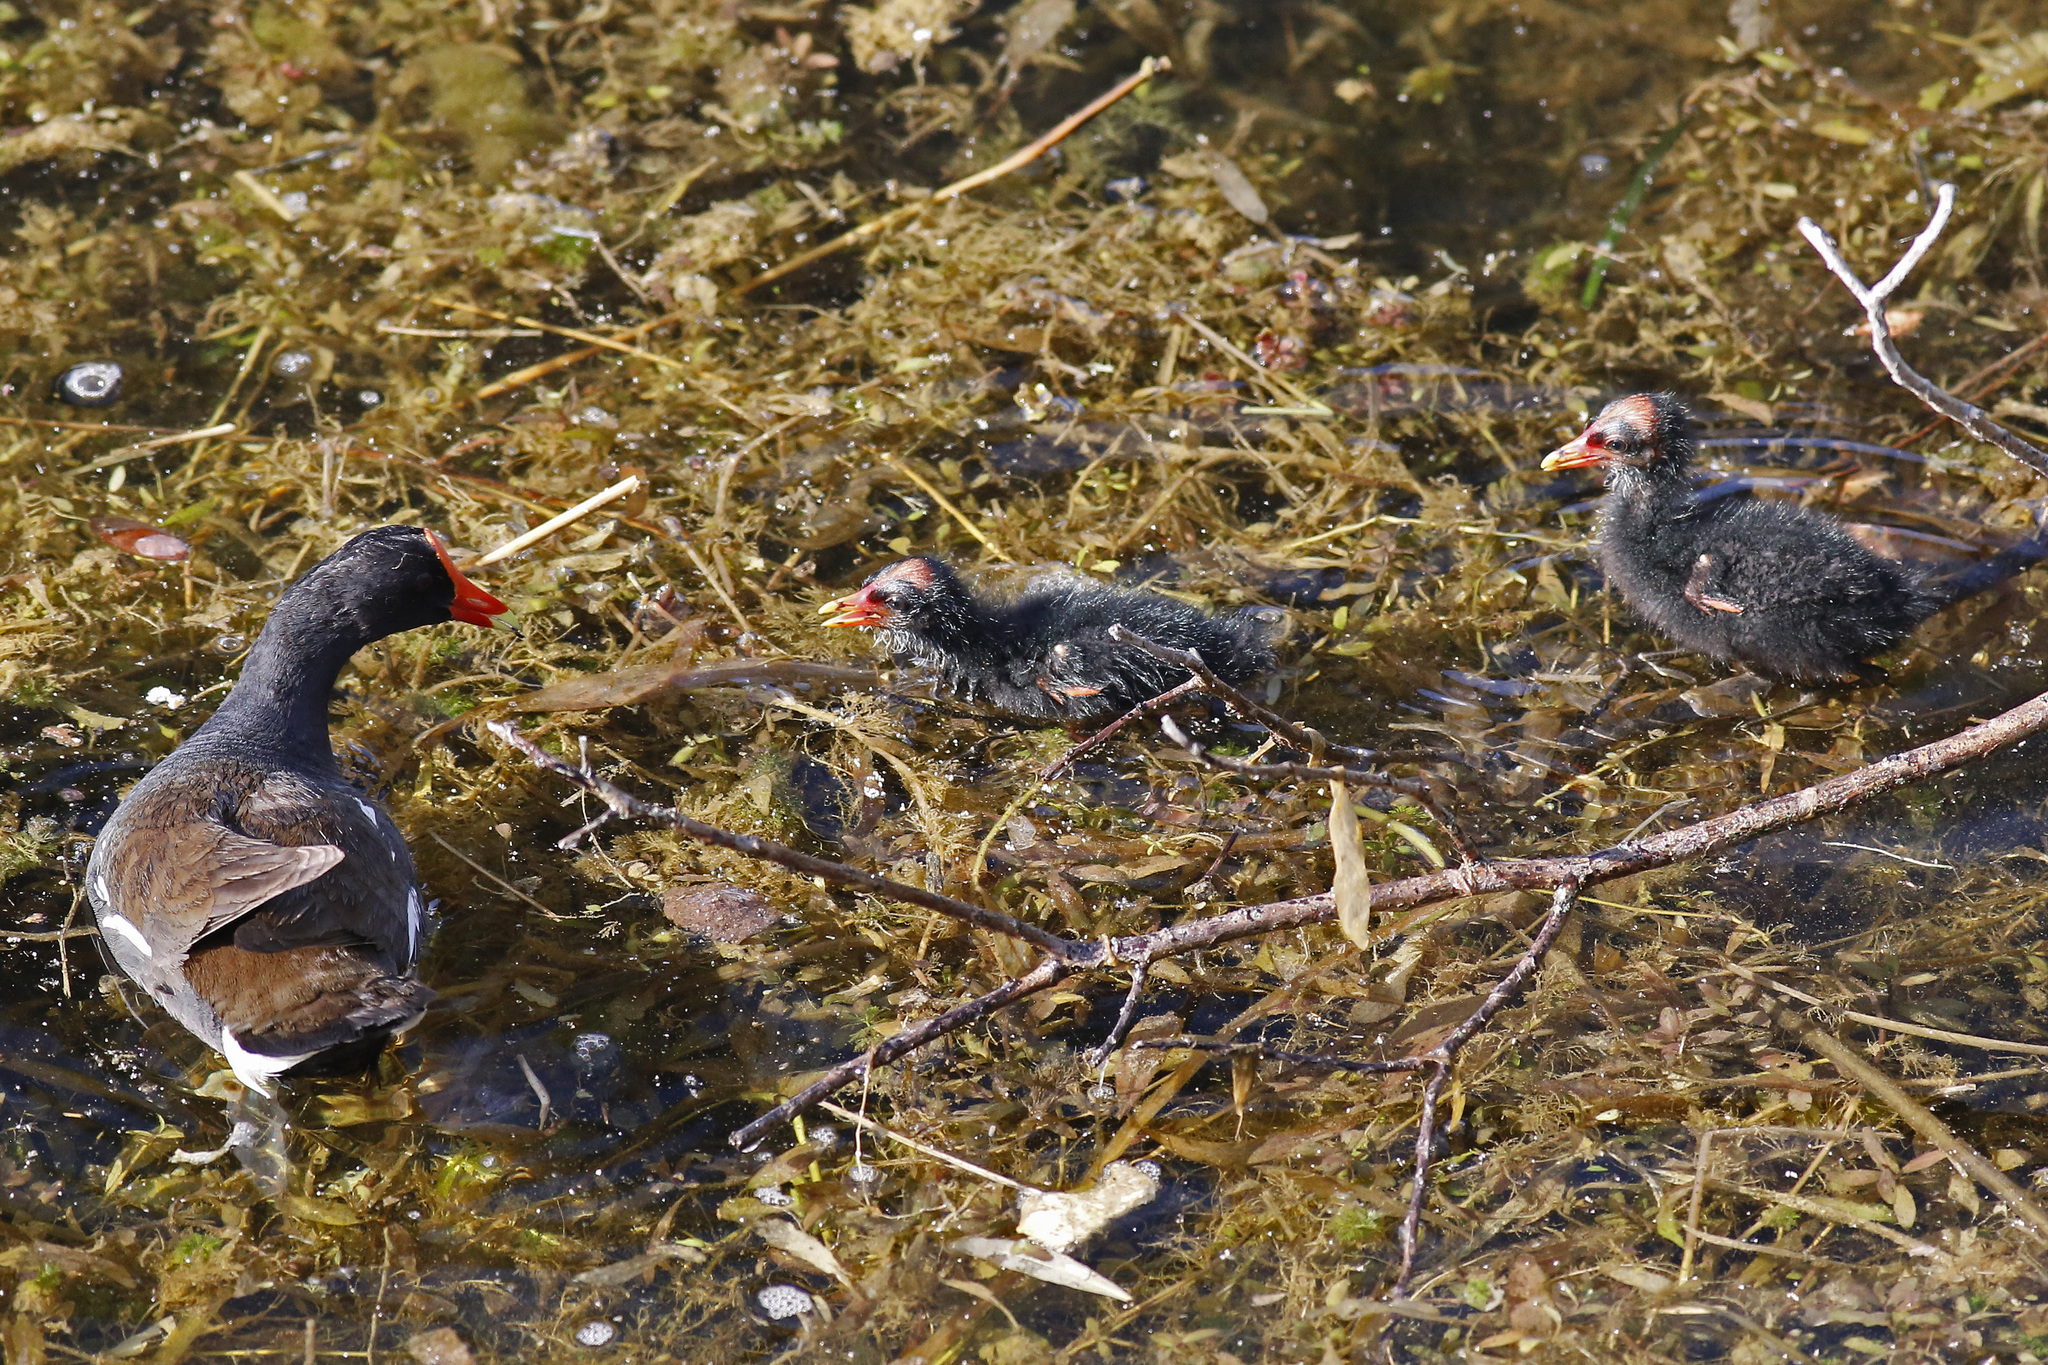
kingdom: Animalia
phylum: Chordata
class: Aves
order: Gruiformes
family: Rallidae
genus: Gallinula
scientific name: Gallinula chloropus
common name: Common moorhen
